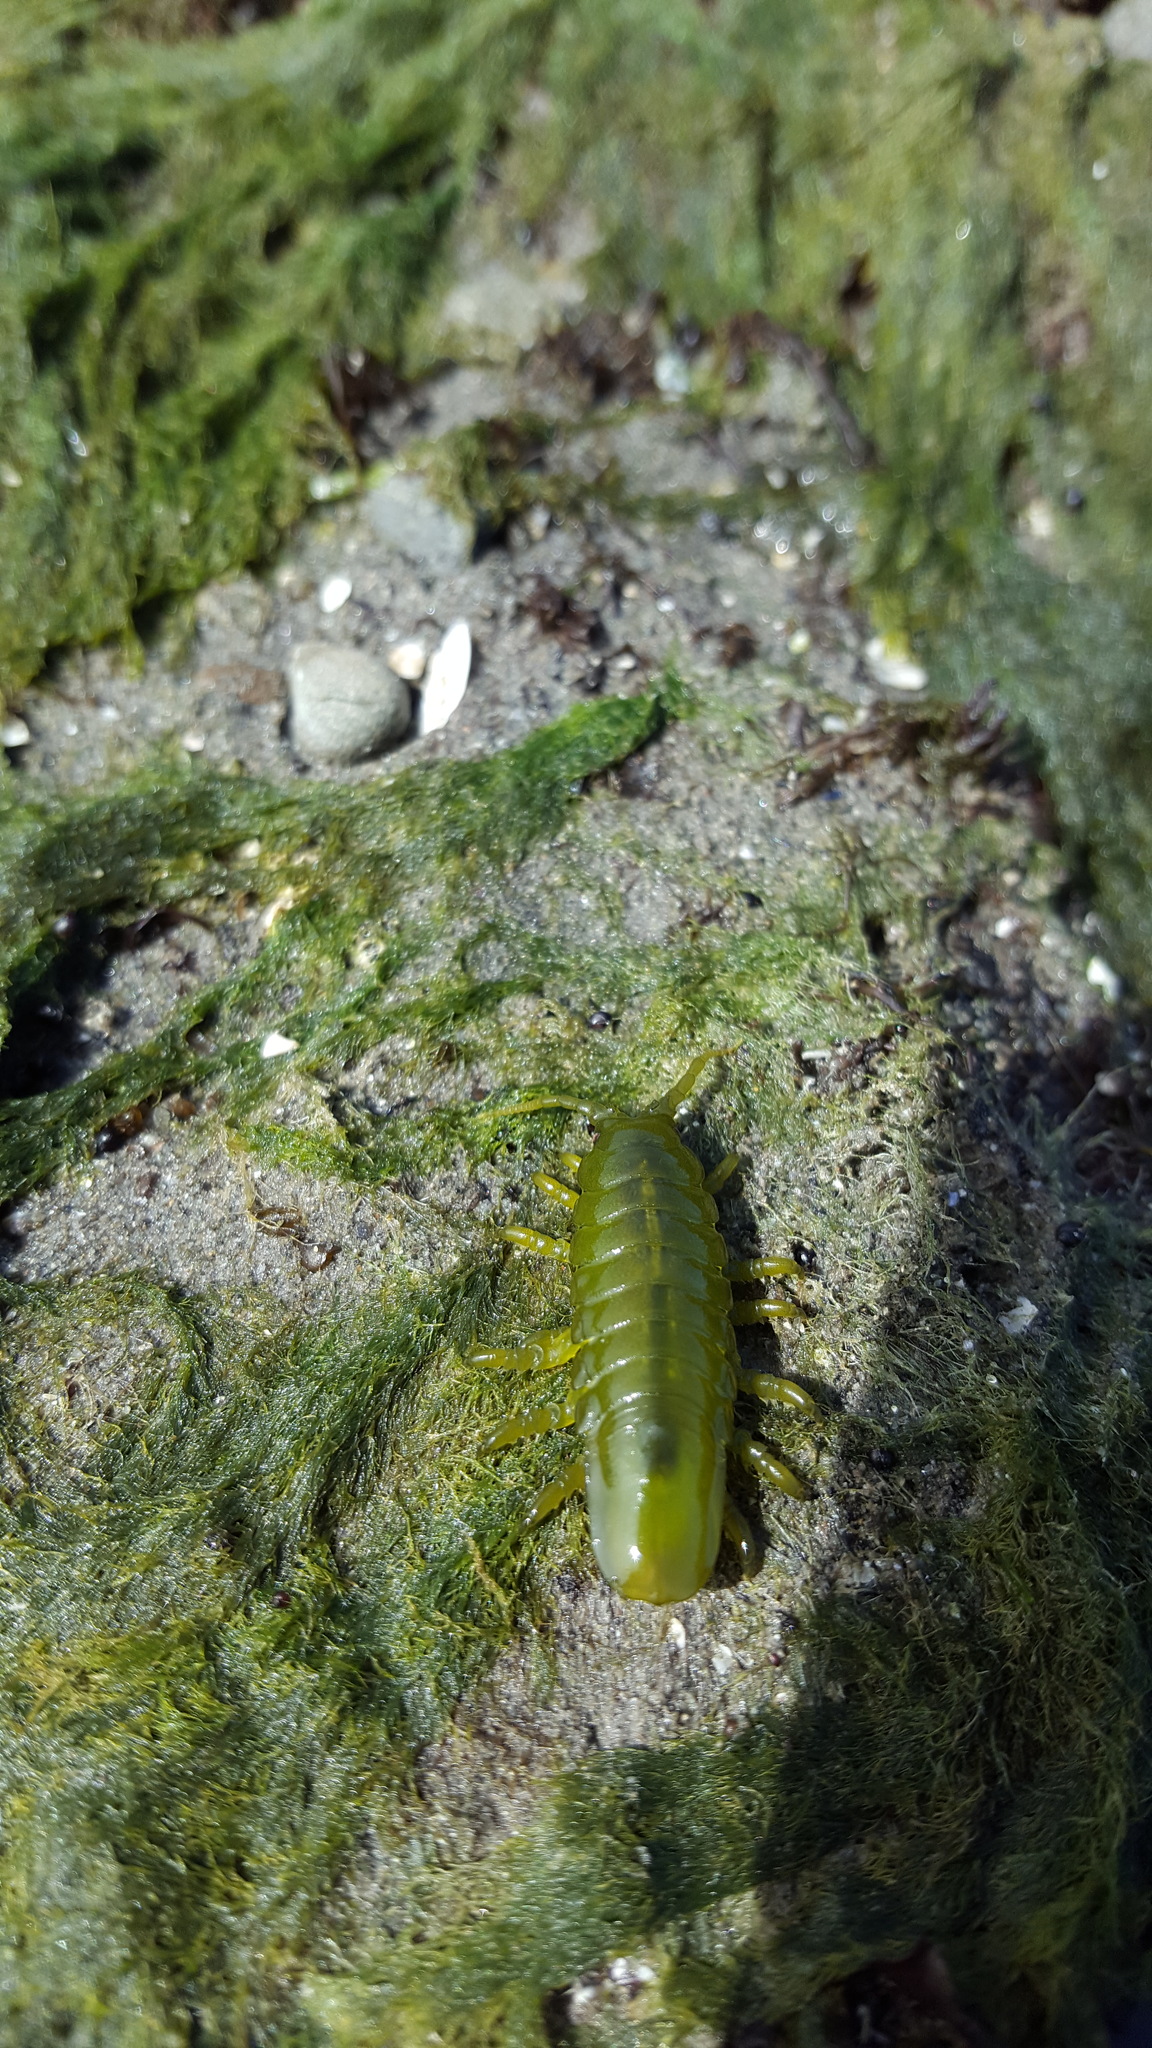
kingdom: Animalia
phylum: Arthropoda
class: Malacostraca
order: Isopoda
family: Idoteidae
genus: Pentidotea
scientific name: Pentidotea wosnesenskii
